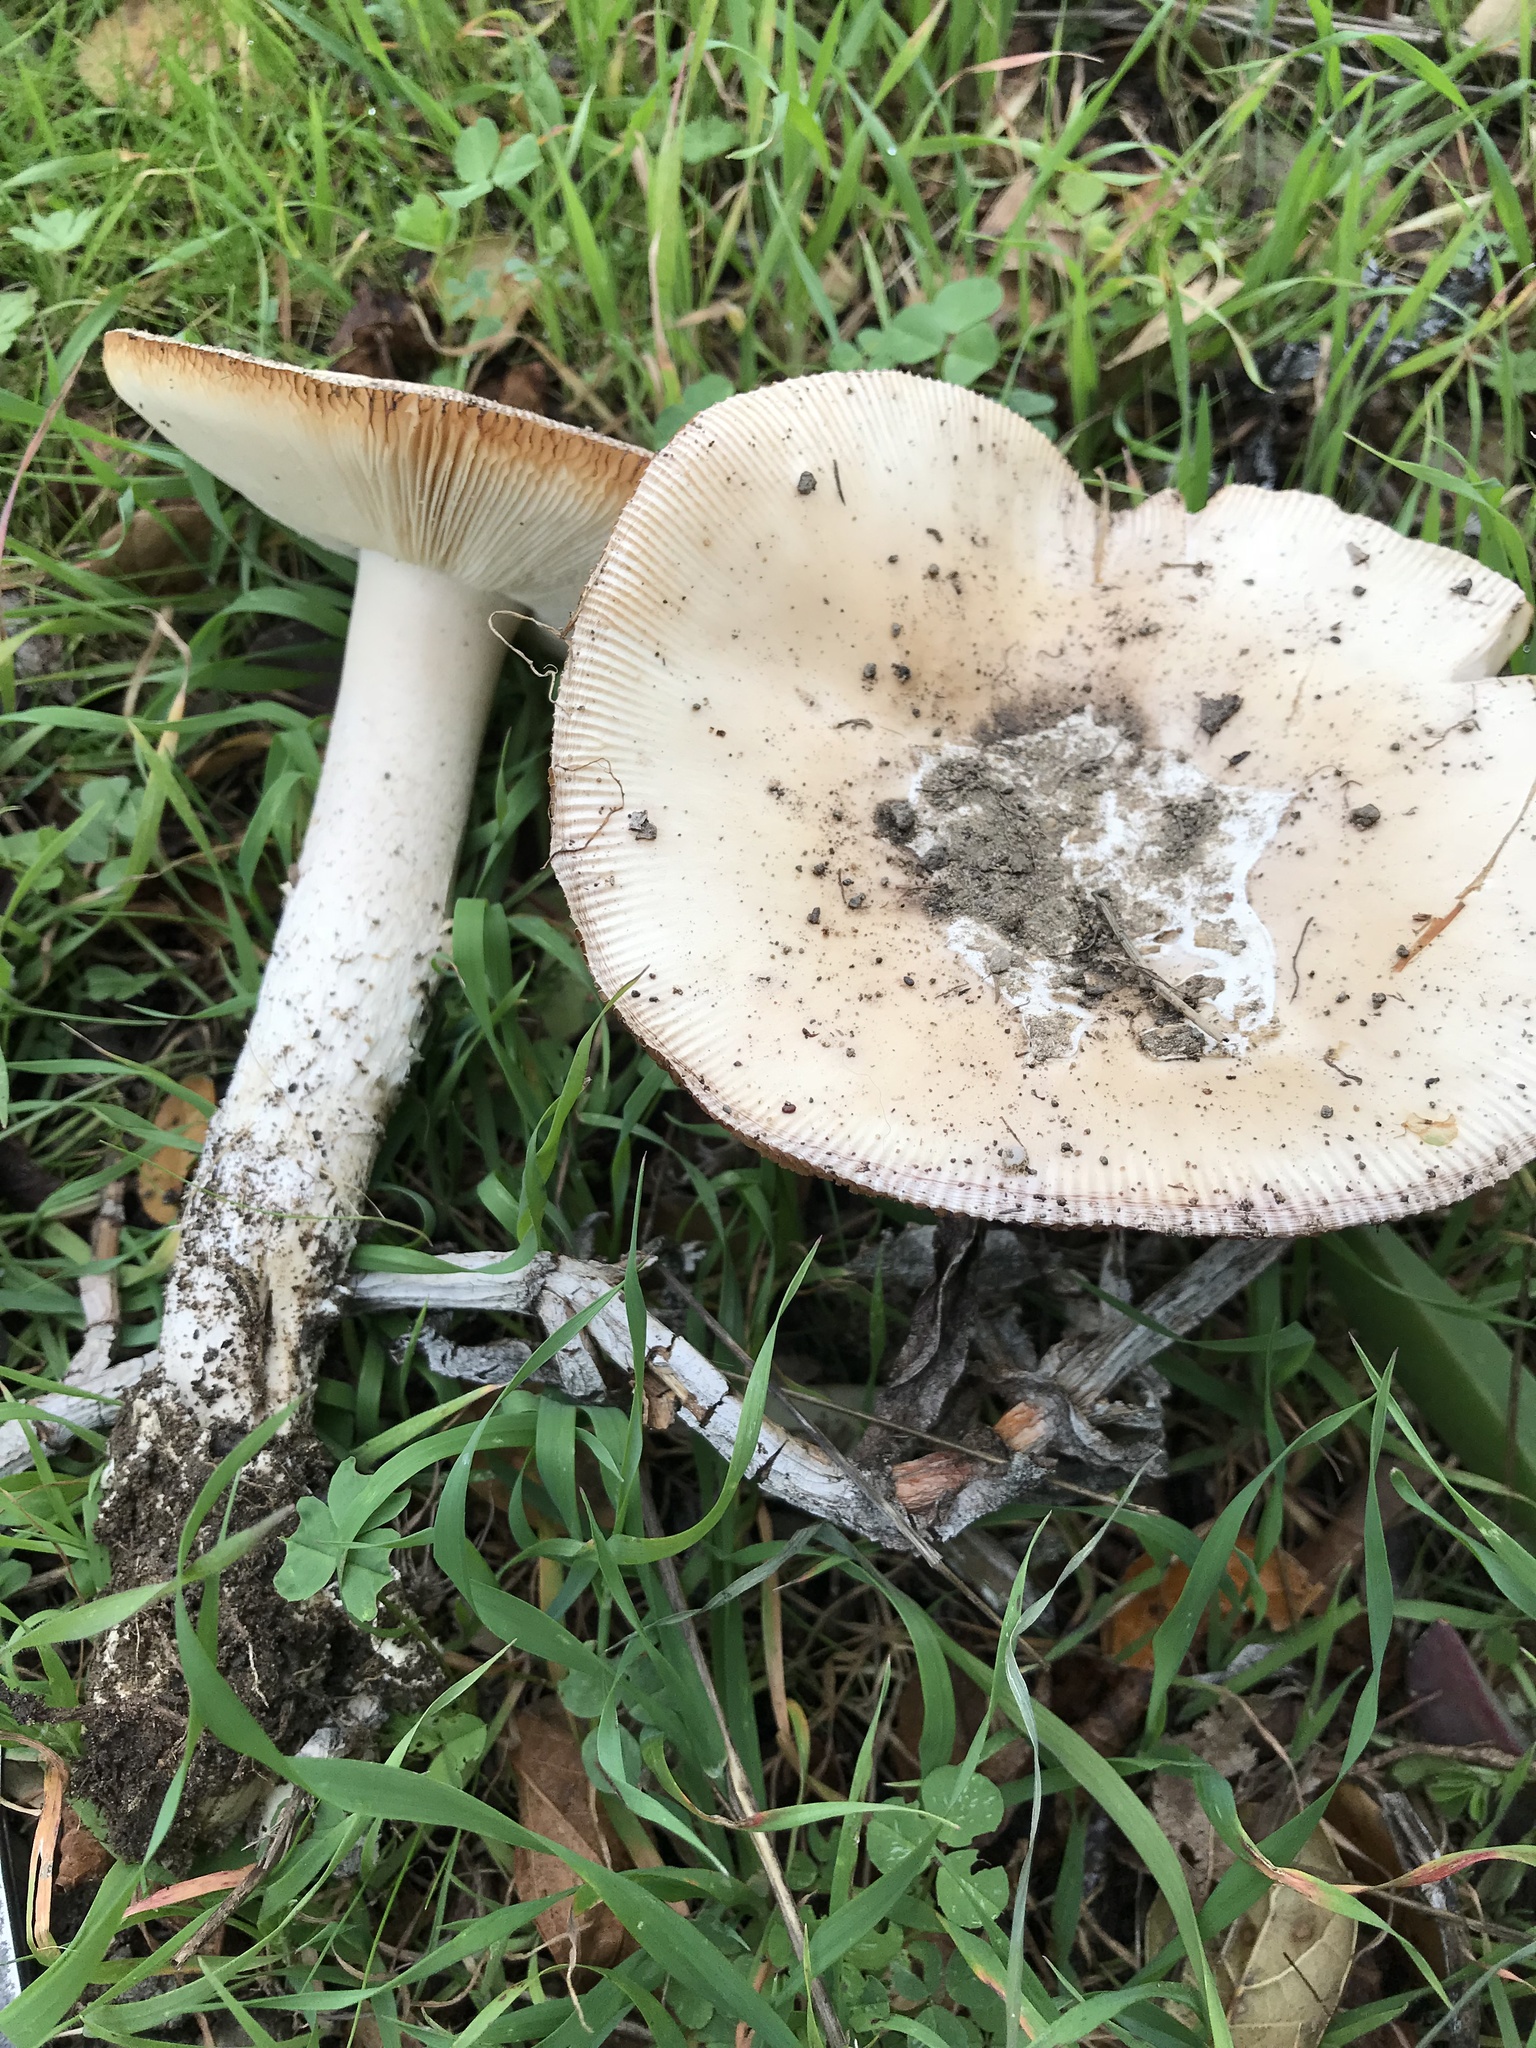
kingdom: Fungi
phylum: Basidiomycota
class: Agaricomycetes
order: Agaricales
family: Amanitaceae
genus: Amanita
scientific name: Amanita velosa
